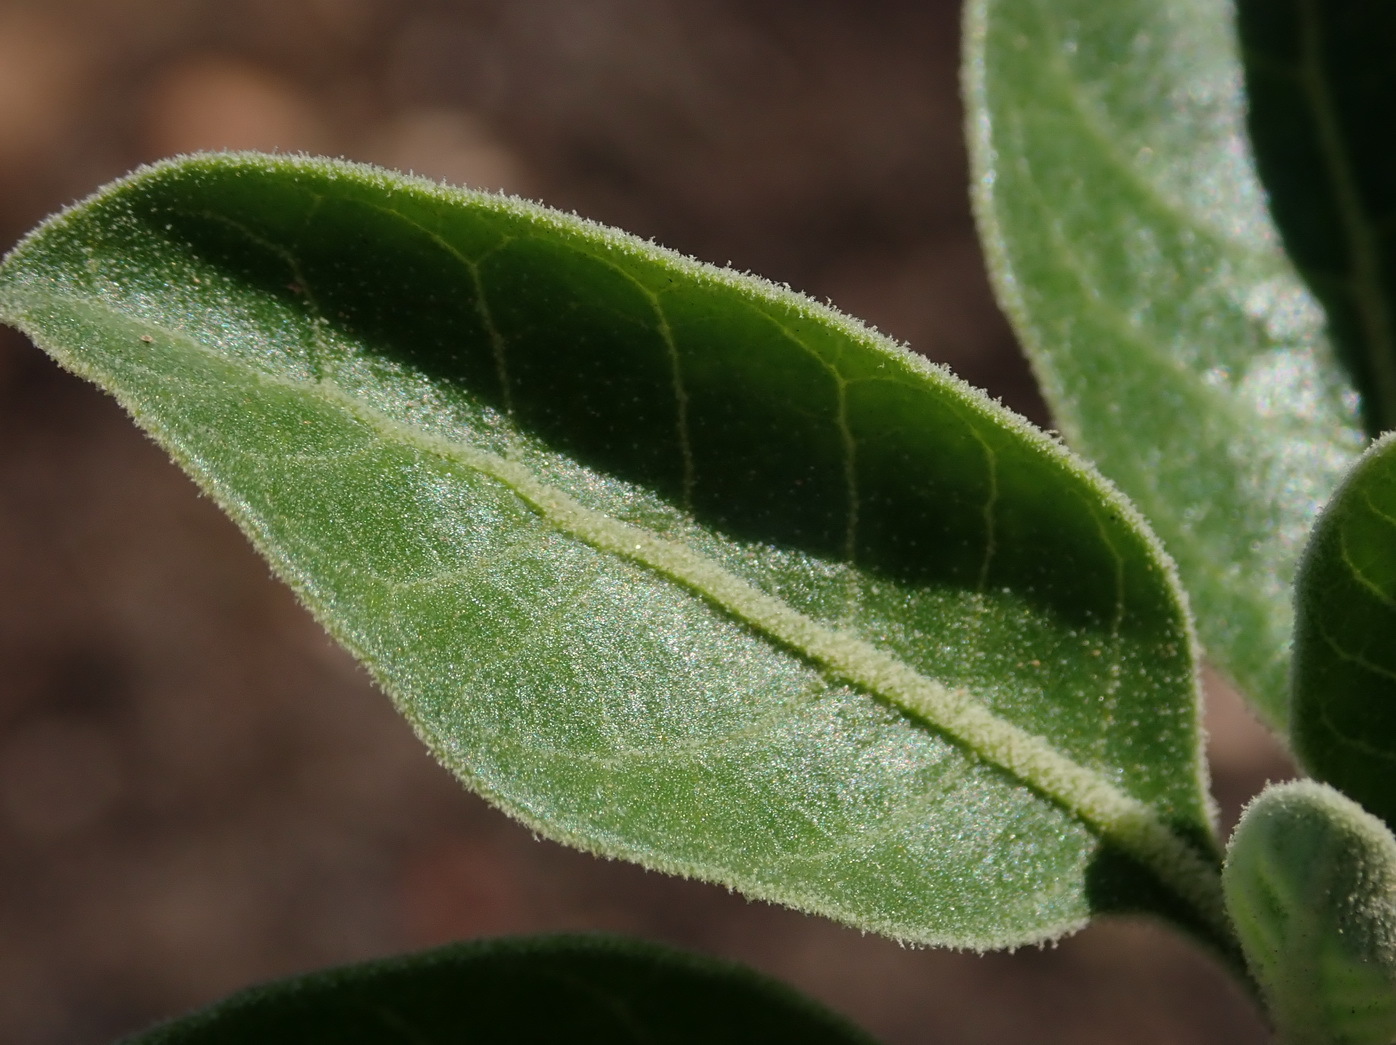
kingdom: Plantae
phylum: Tracheophyta
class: Magnoliopsida
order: Solanales
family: Solanaceae
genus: Withania
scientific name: Withania somnifera
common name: Winter-cherry
